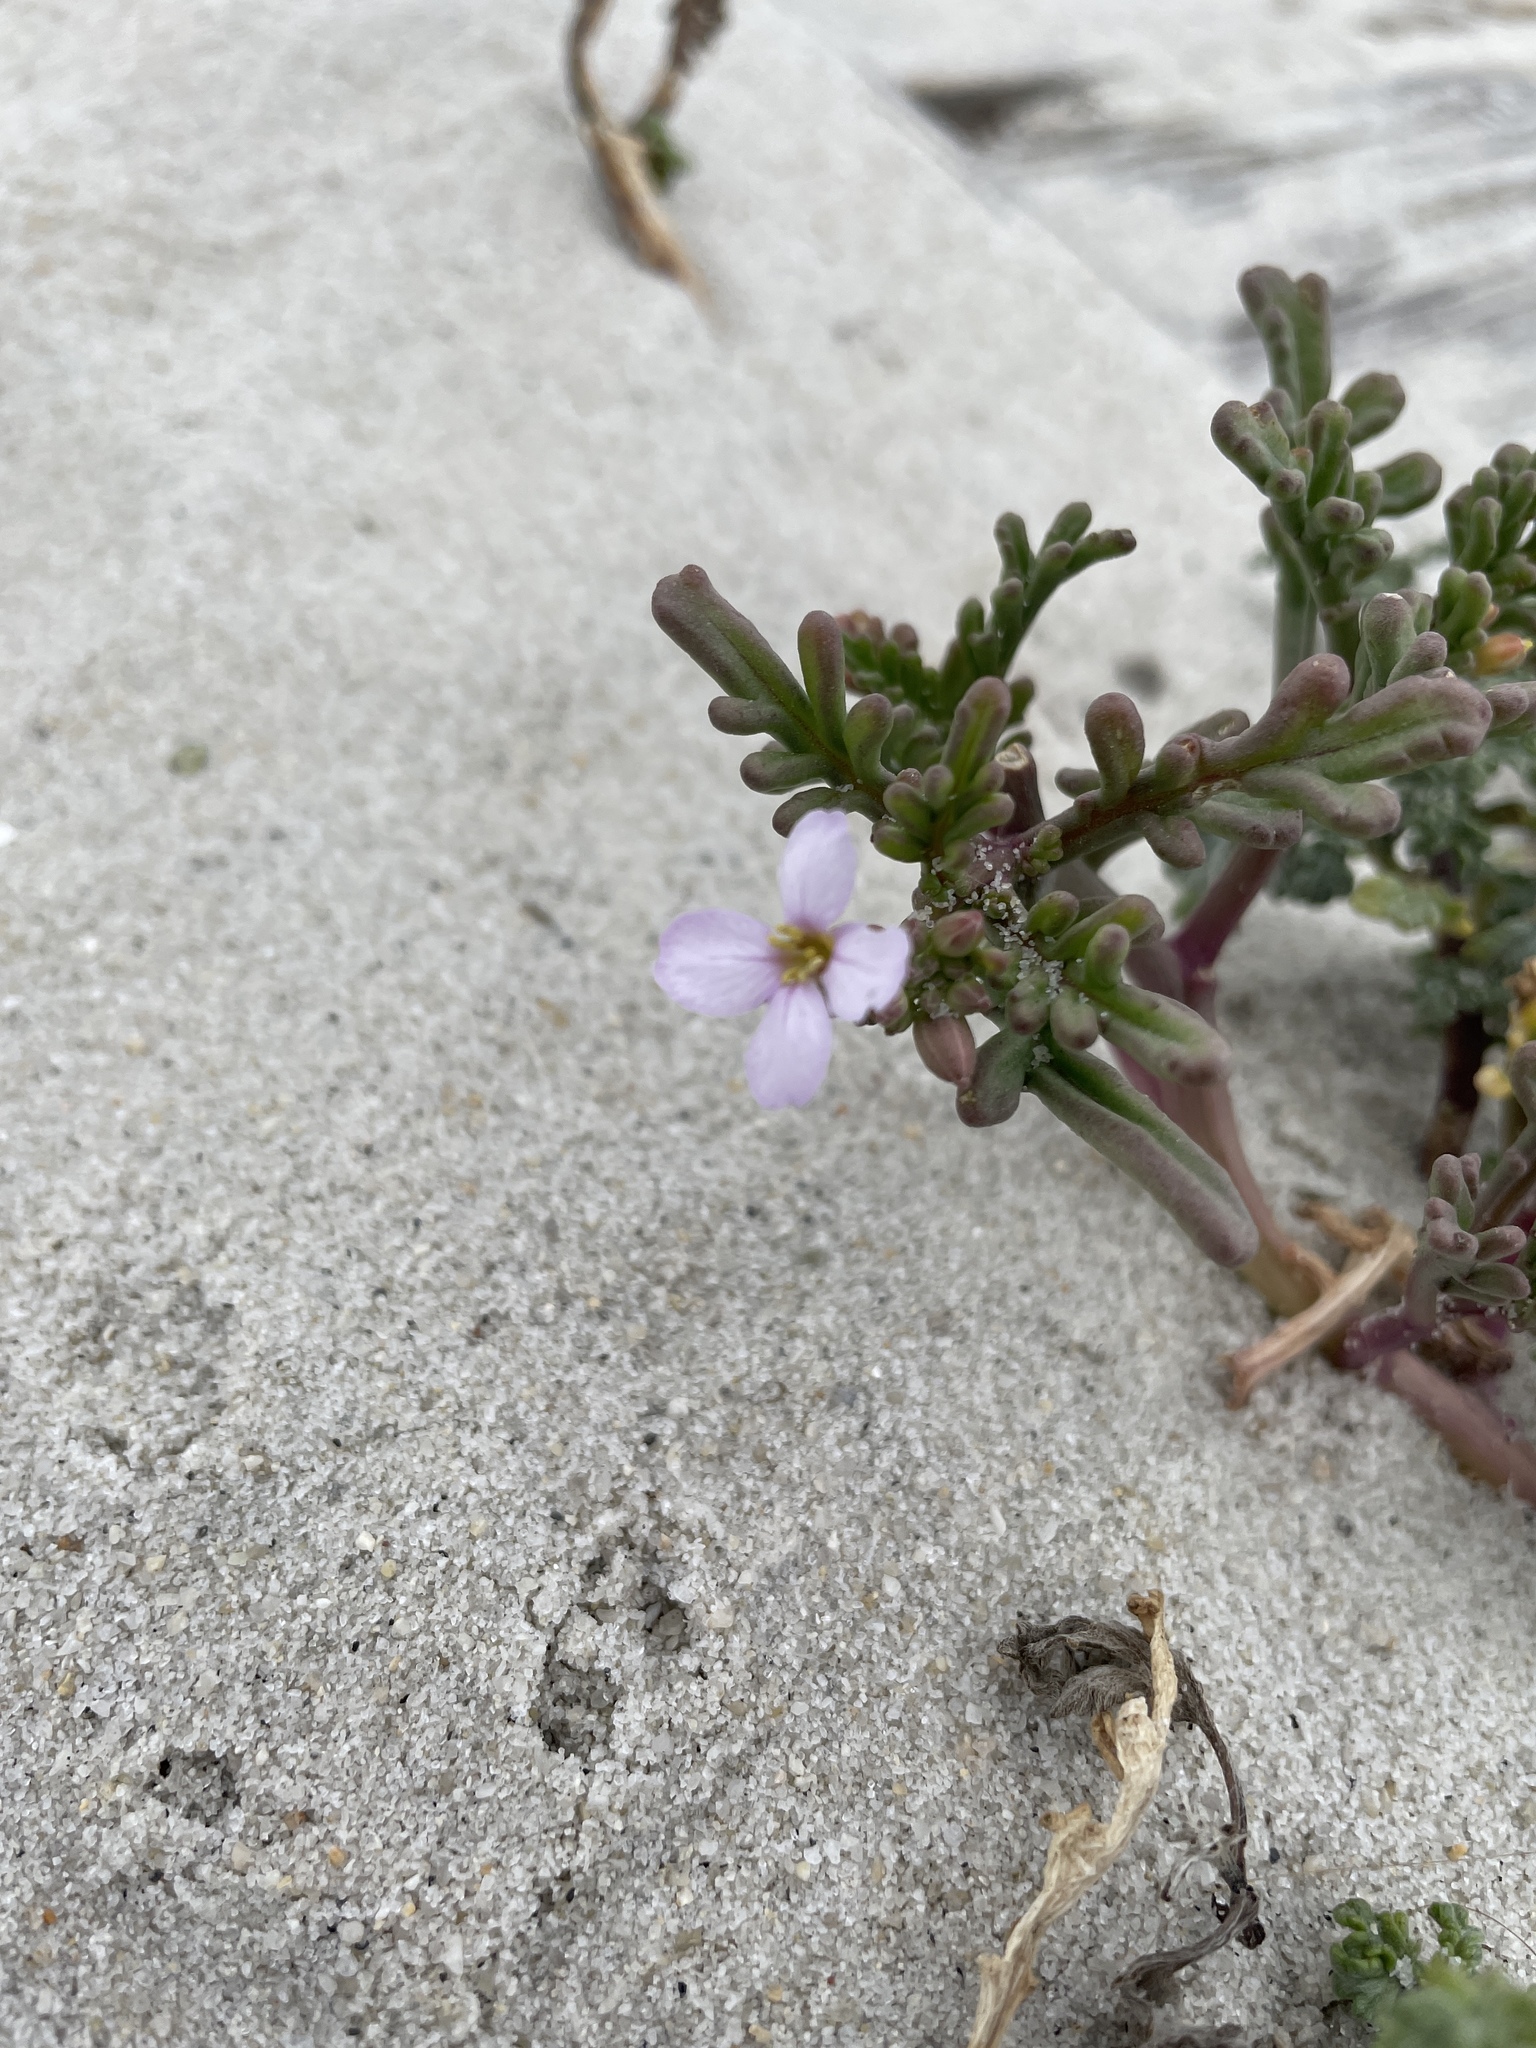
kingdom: Plantae
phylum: Tracheophyta
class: Magnoliopsida
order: Brassicales
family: Brassicaceae
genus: Cakile
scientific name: Cakile maritima
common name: Sea rocket
